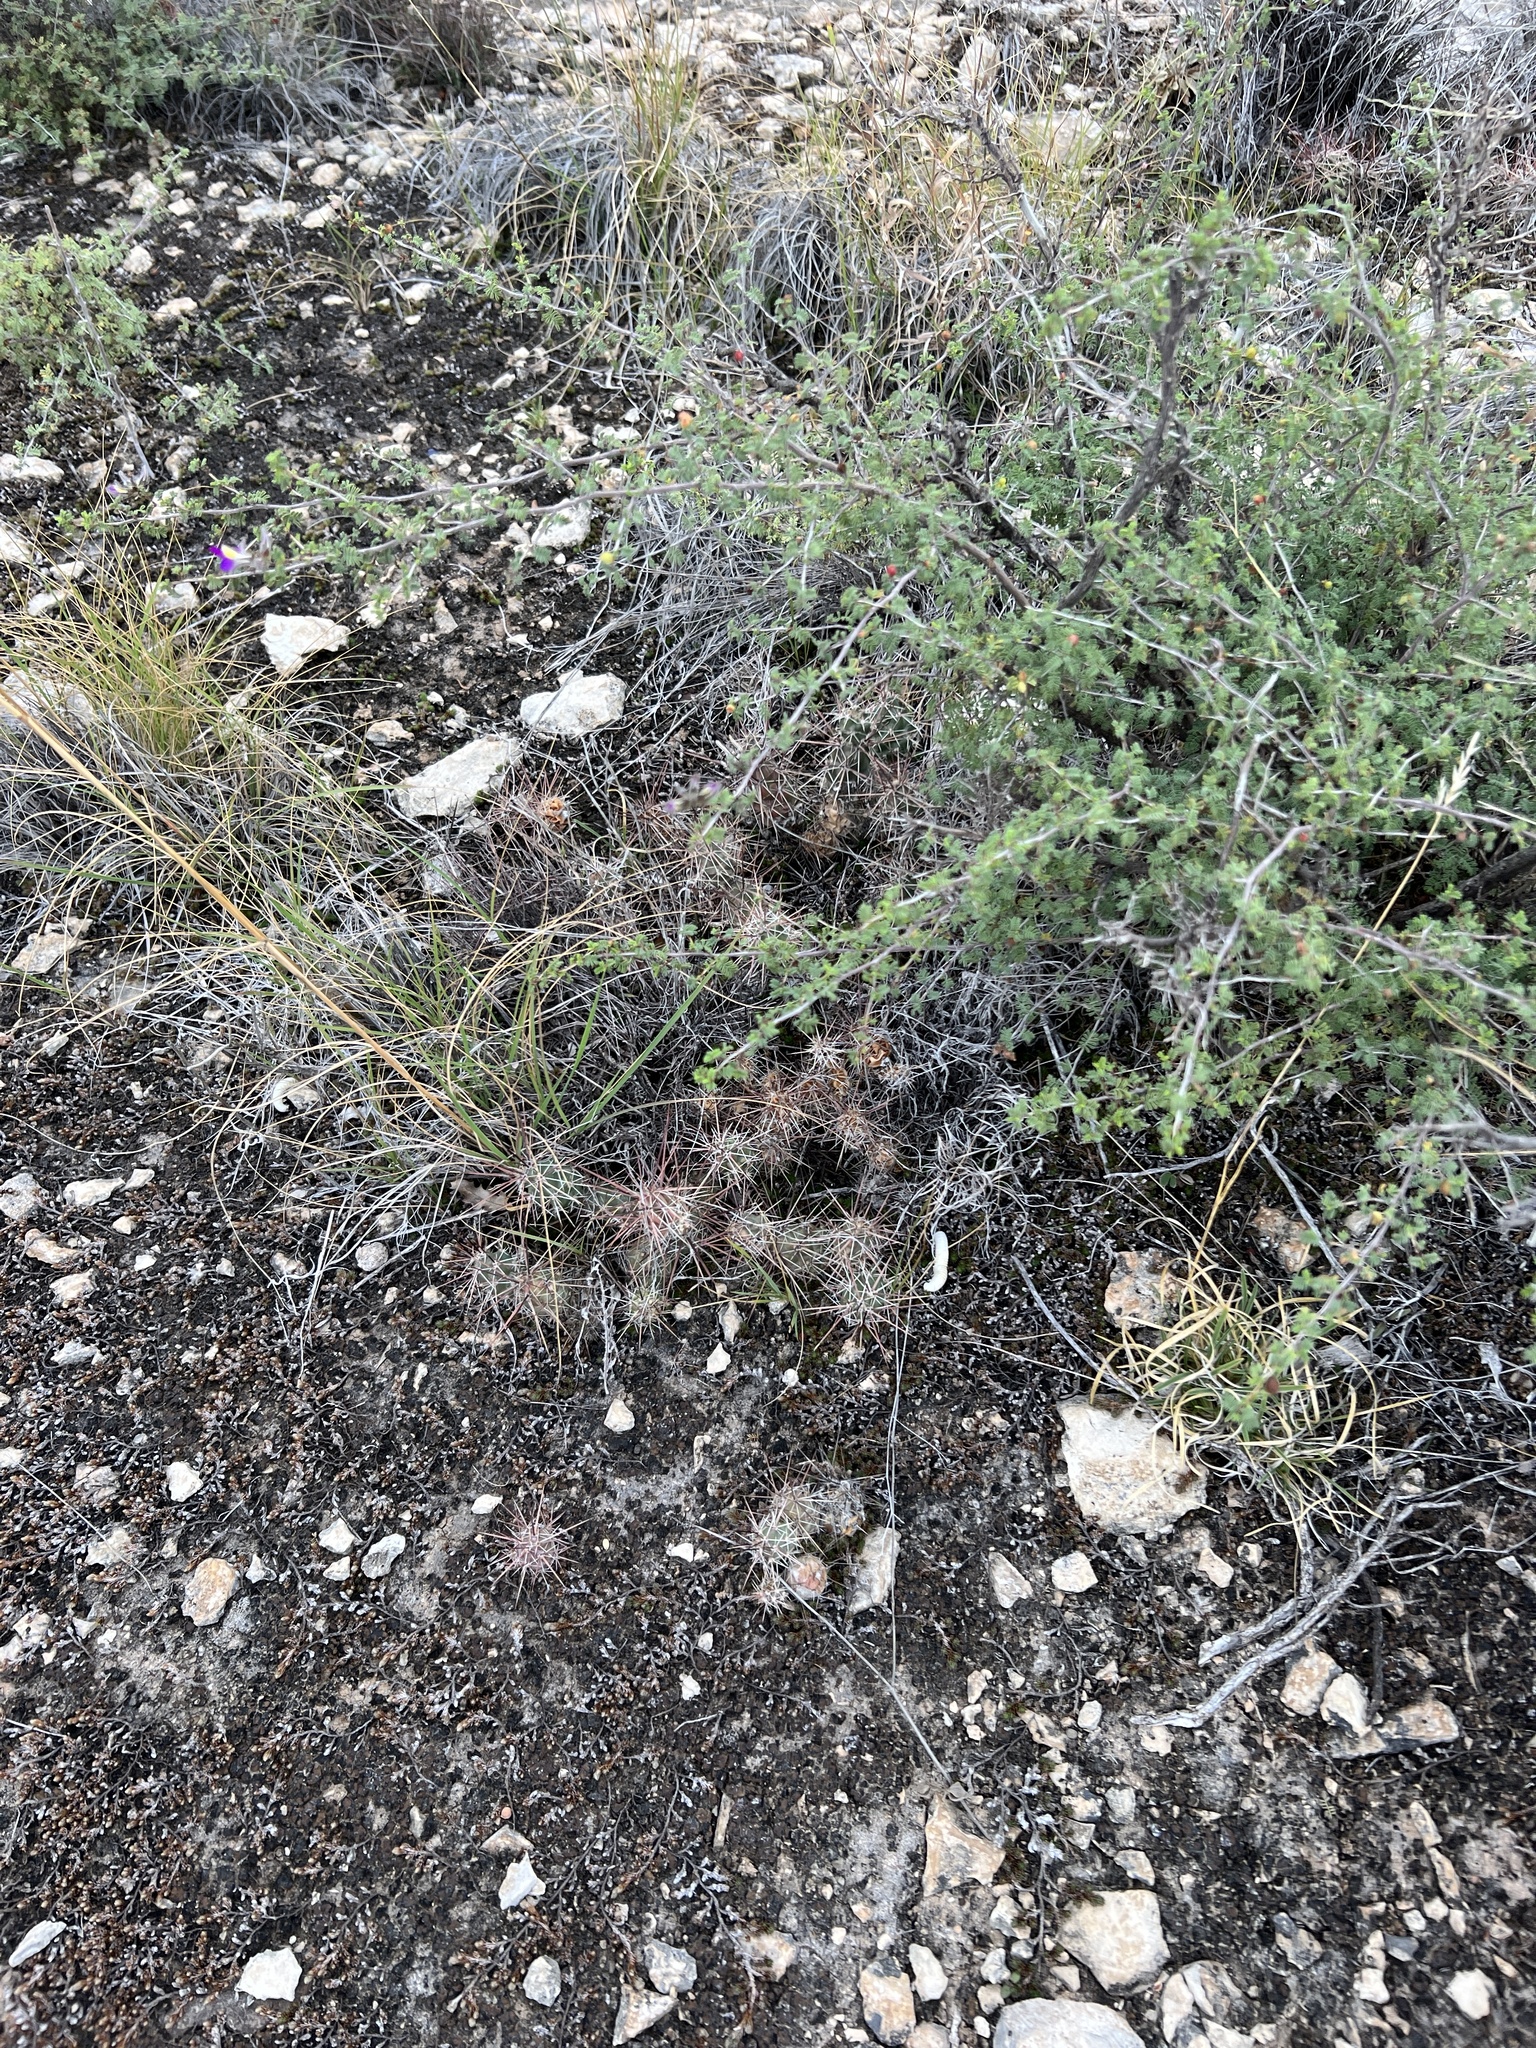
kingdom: Plantae
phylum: Tracheophyta
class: Magnoliopsida
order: Caryophyllales
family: Cactaceae
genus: Grusonia
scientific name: Grusonia schottii
